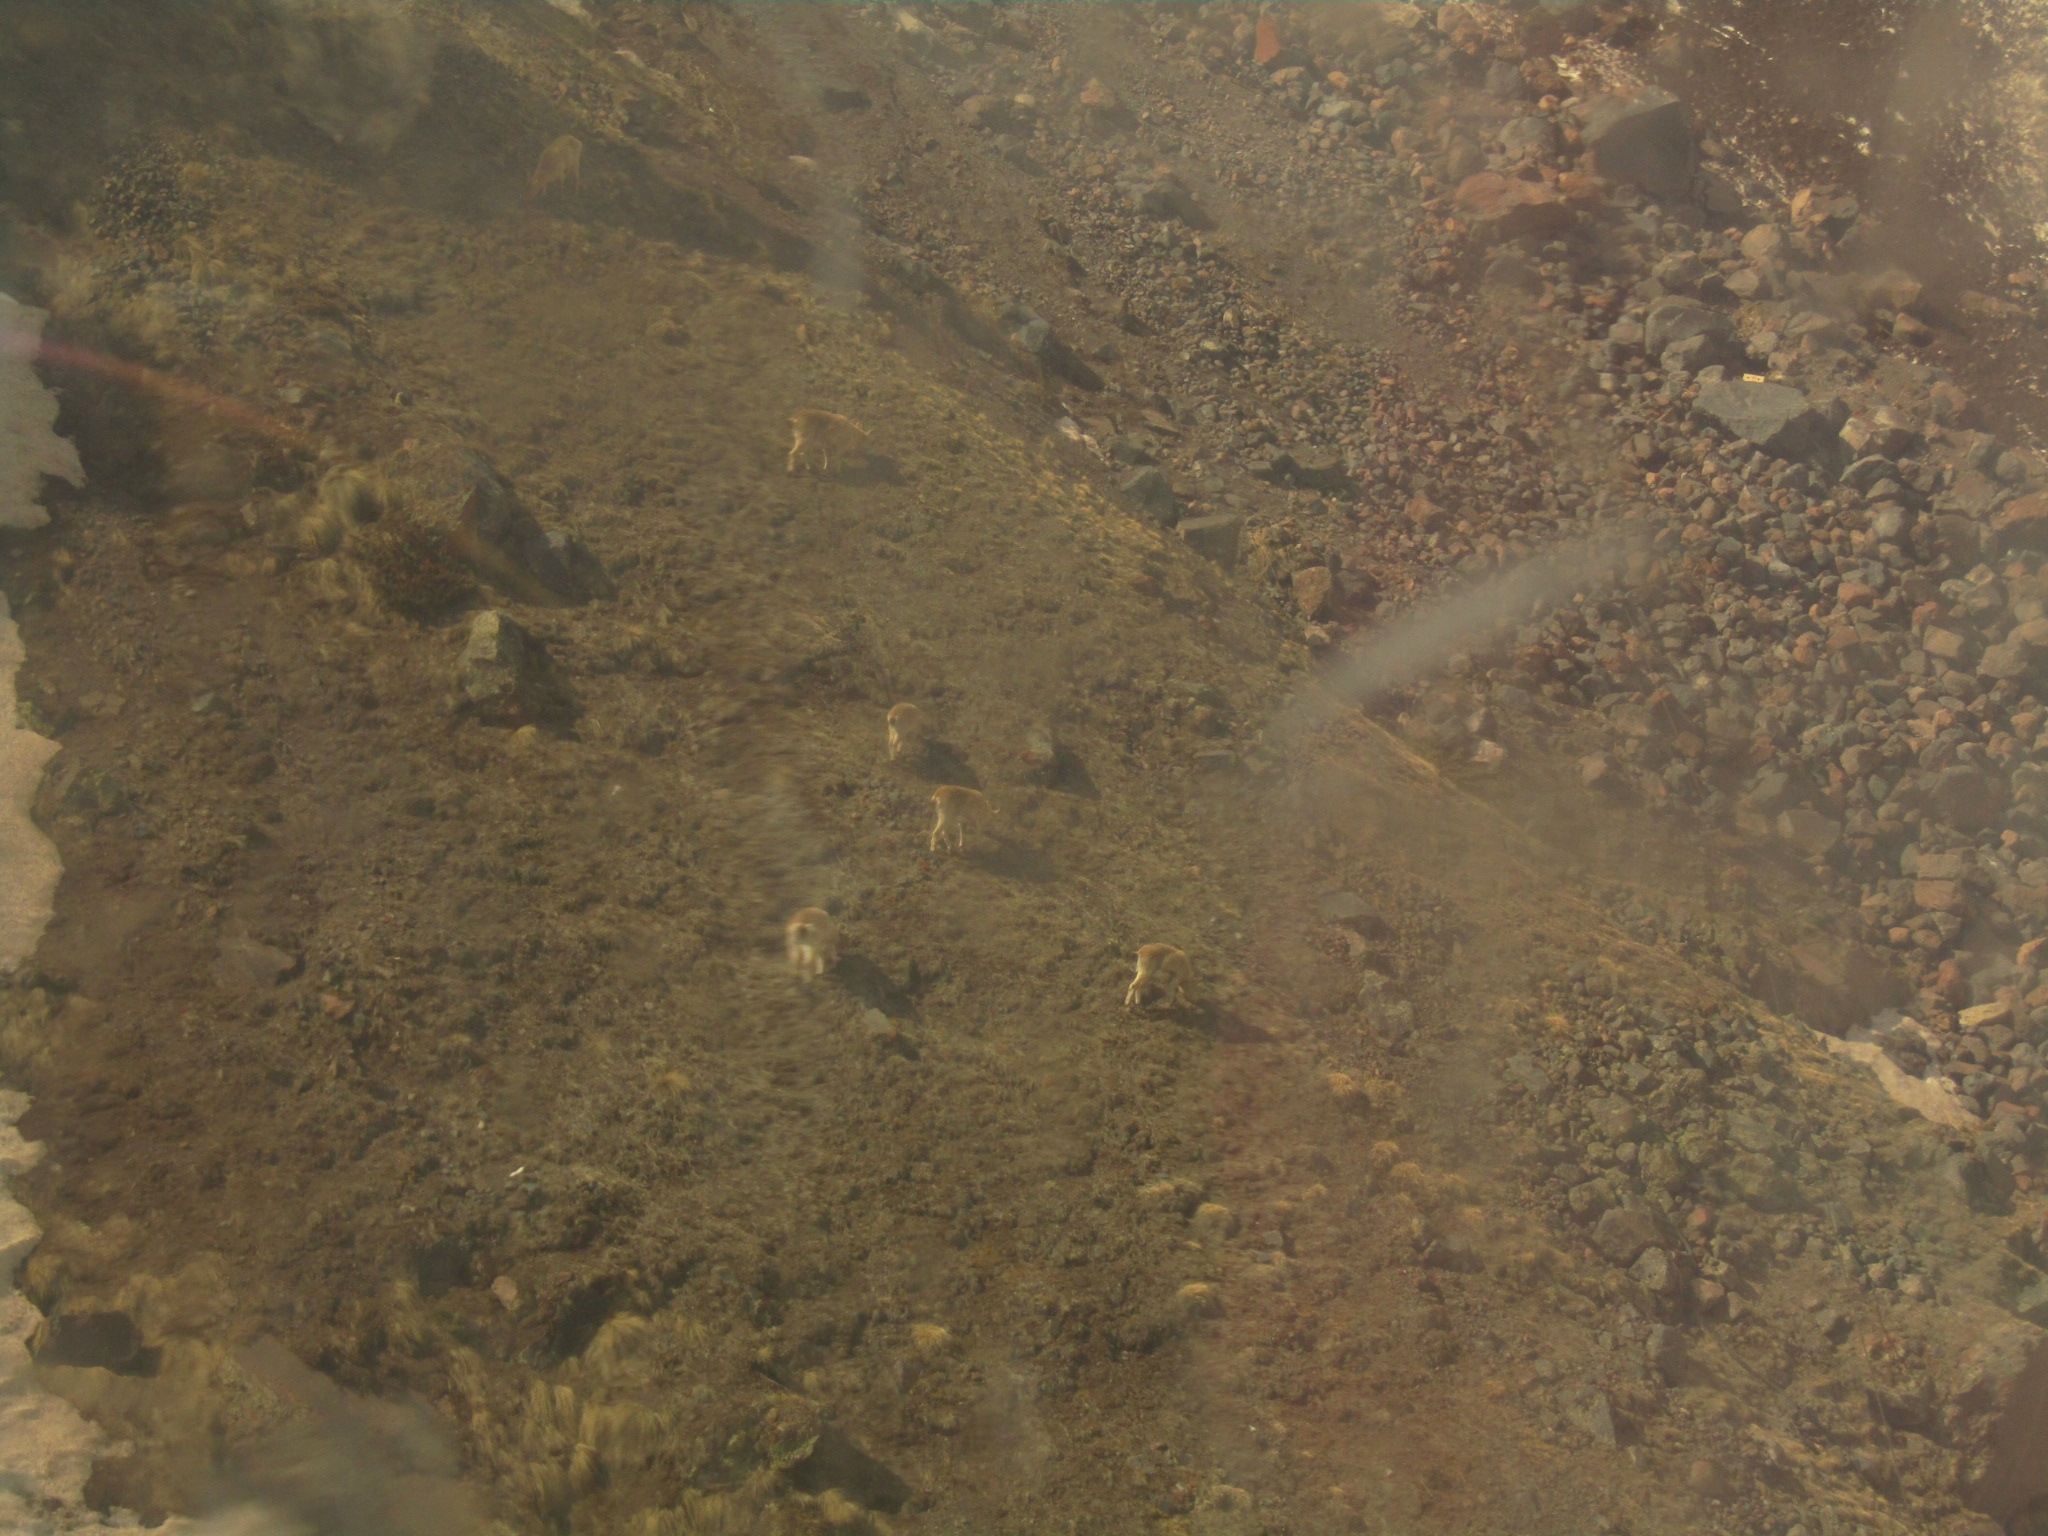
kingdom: Animalia
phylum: Chordata
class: Mammalia
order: Artiodactyla
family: Bovidae
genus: Capra
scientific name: Capra caucasica
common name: Tur
